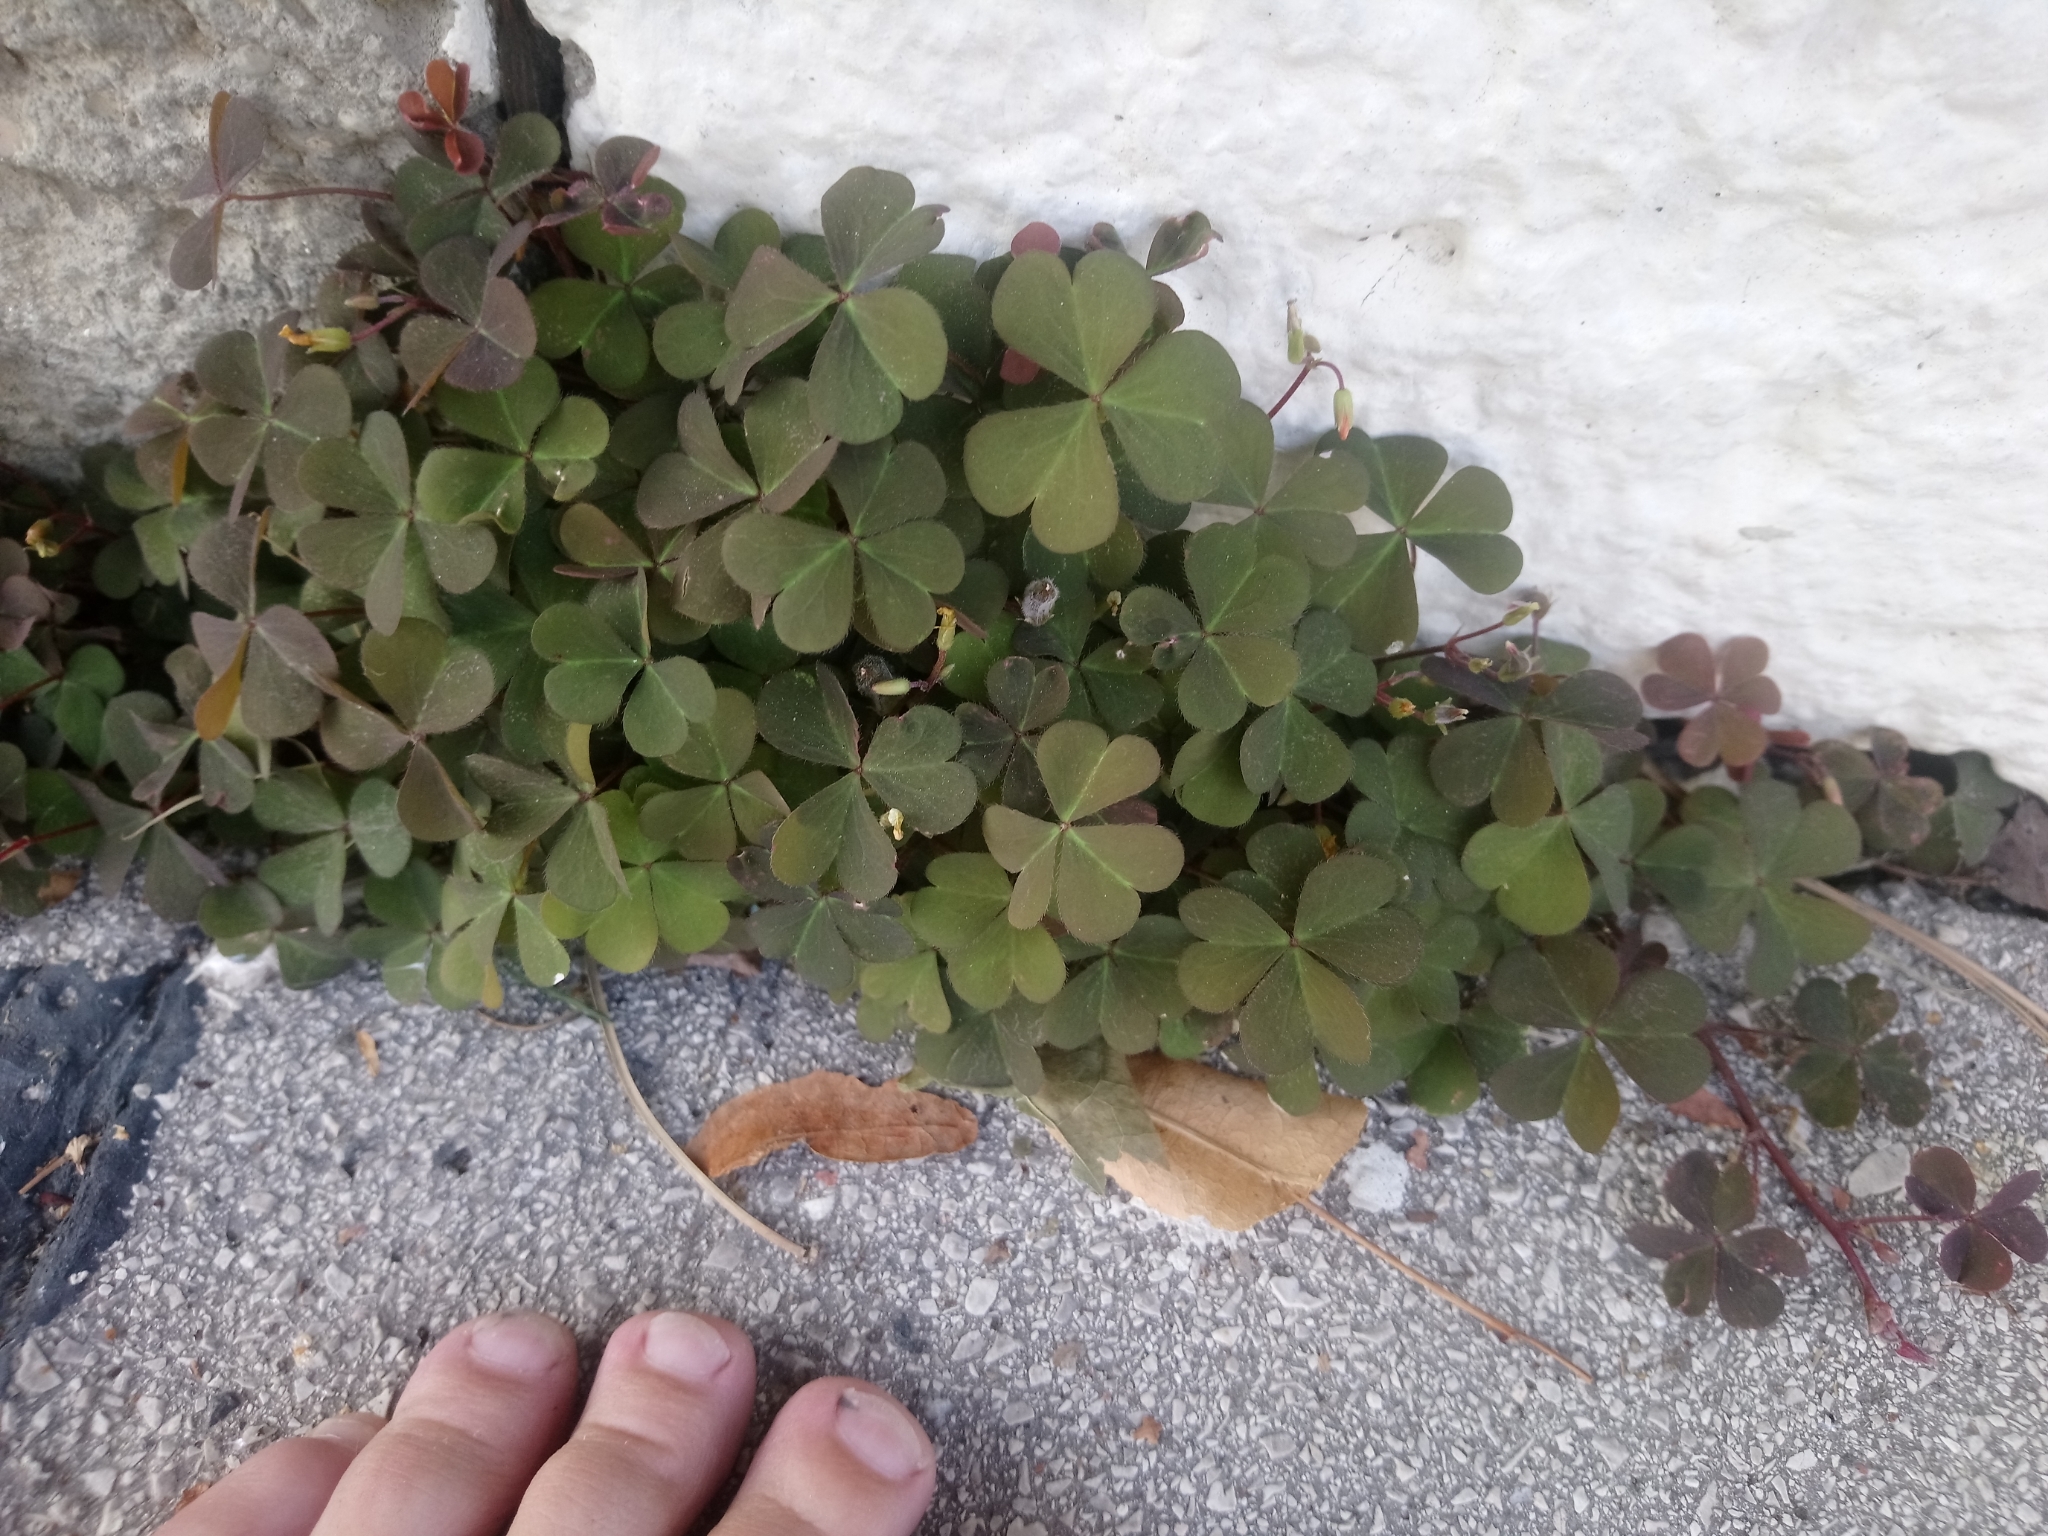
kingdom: Plantae
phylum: Tracheophyta
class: Magnoliopsida
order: Oxalidales
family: Oxalidaceae
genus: Oxalis
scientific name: Oxalis corniculata
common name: Procumbent yellow-sorrel
